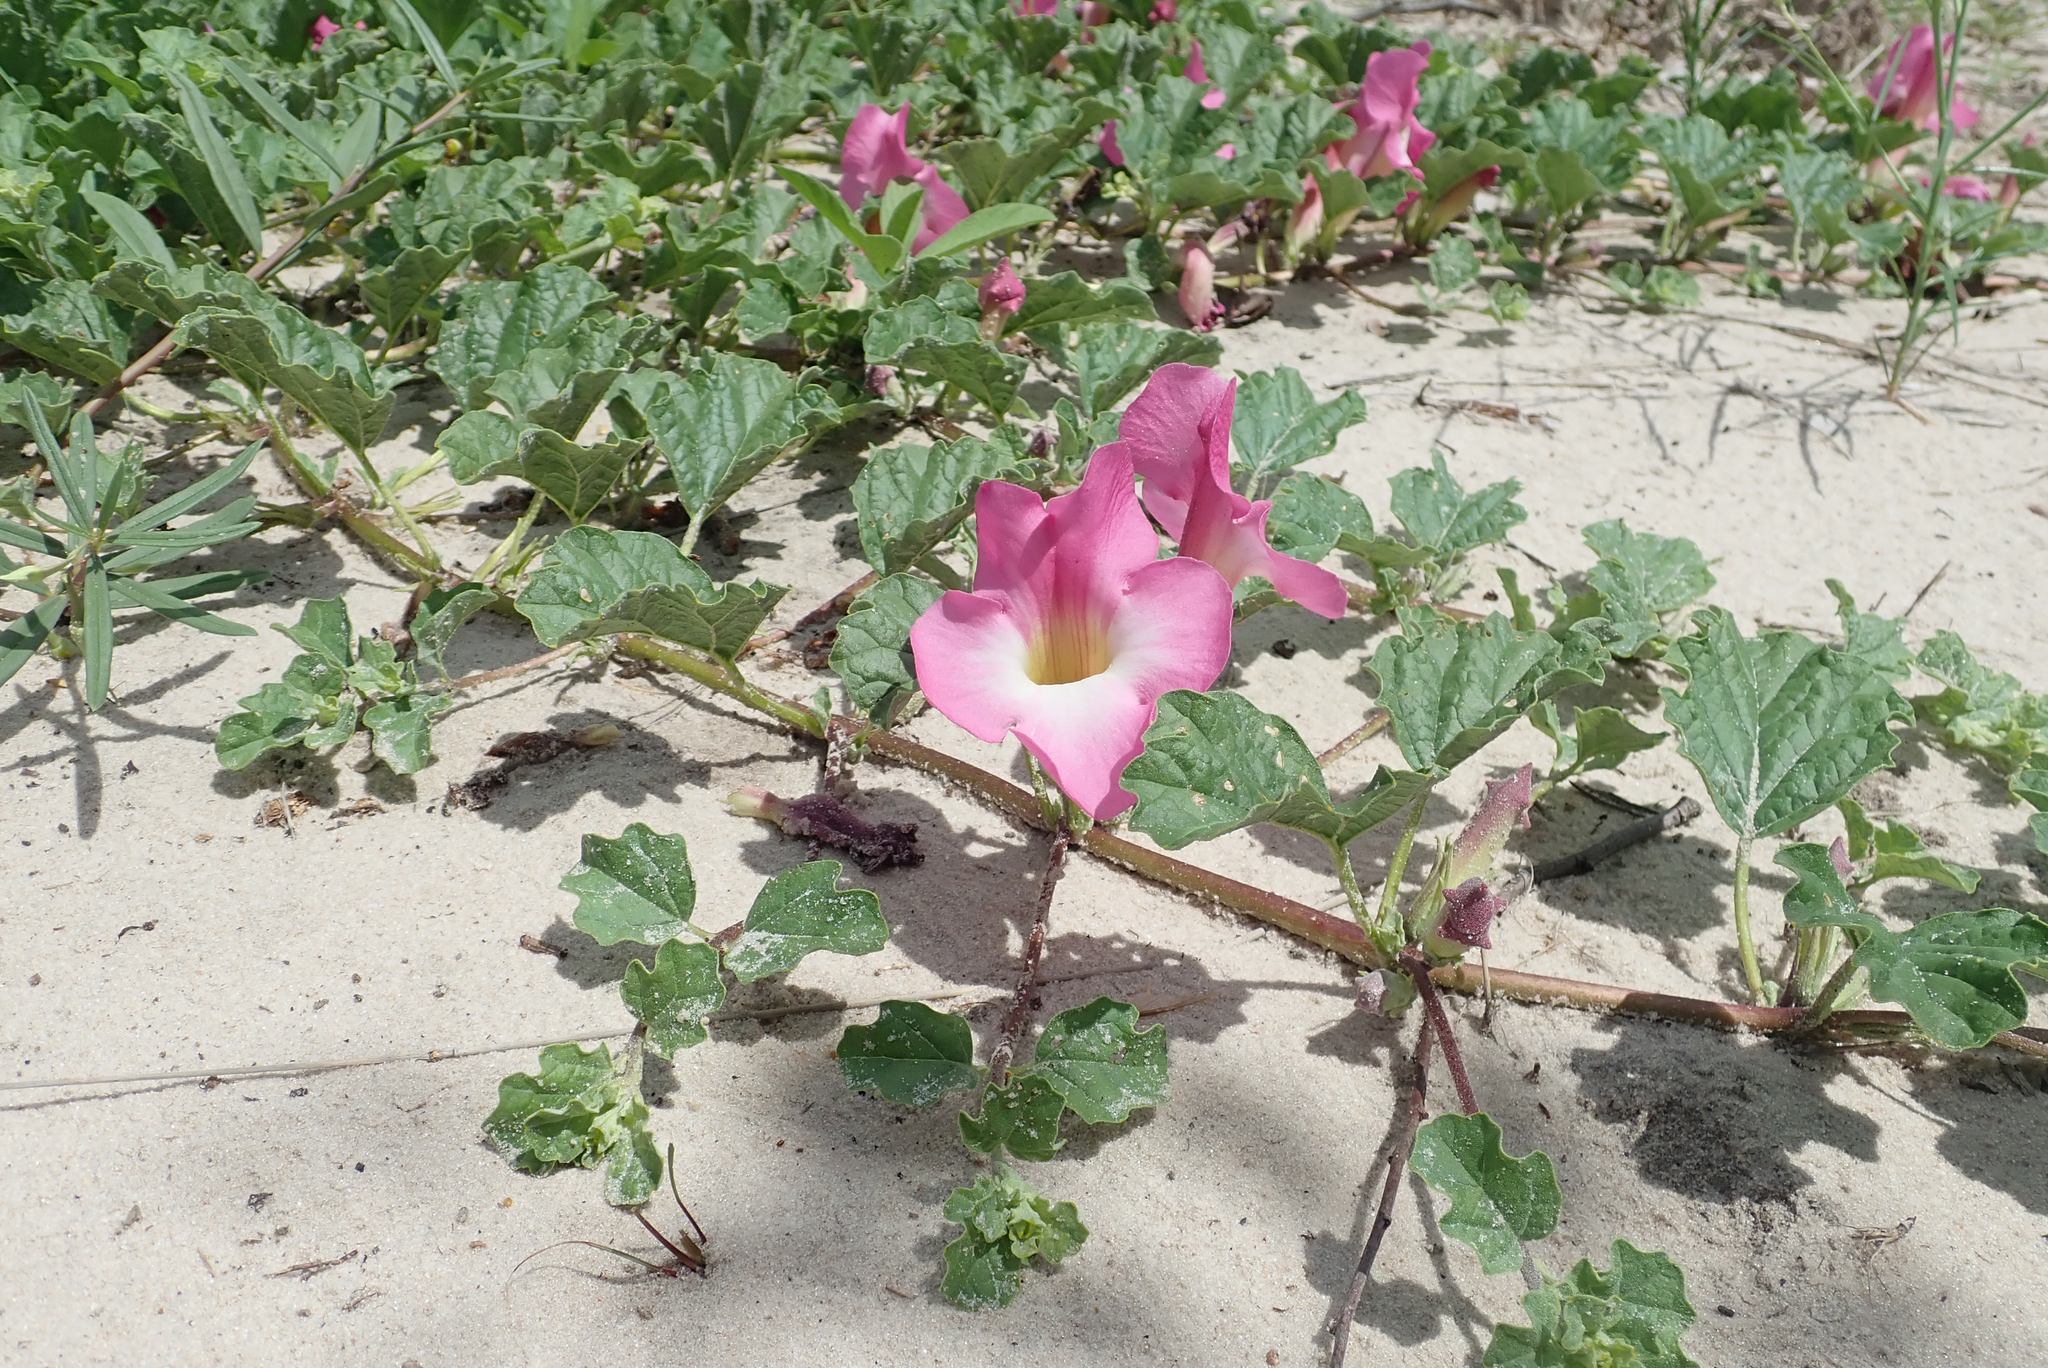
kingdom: Plantae
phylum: Tracheophyta
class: Magnoliopsida
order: Lamiales
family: Pedaliaceae
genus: Harpagophytum
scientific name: Harpagophytum zeyheri
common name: Grappleplant
